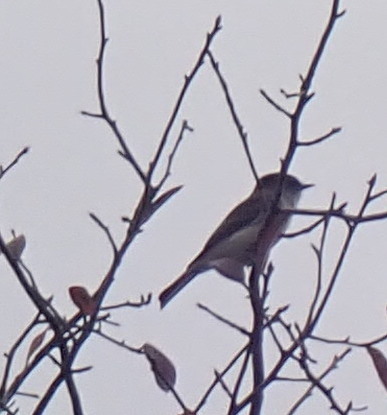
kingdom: Animalia
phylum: Chordata
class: Aves
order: Passeriformes
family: Tyrannidae
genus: Sayornis
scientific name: Sayornis phoebe
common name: Eastern phoebe
